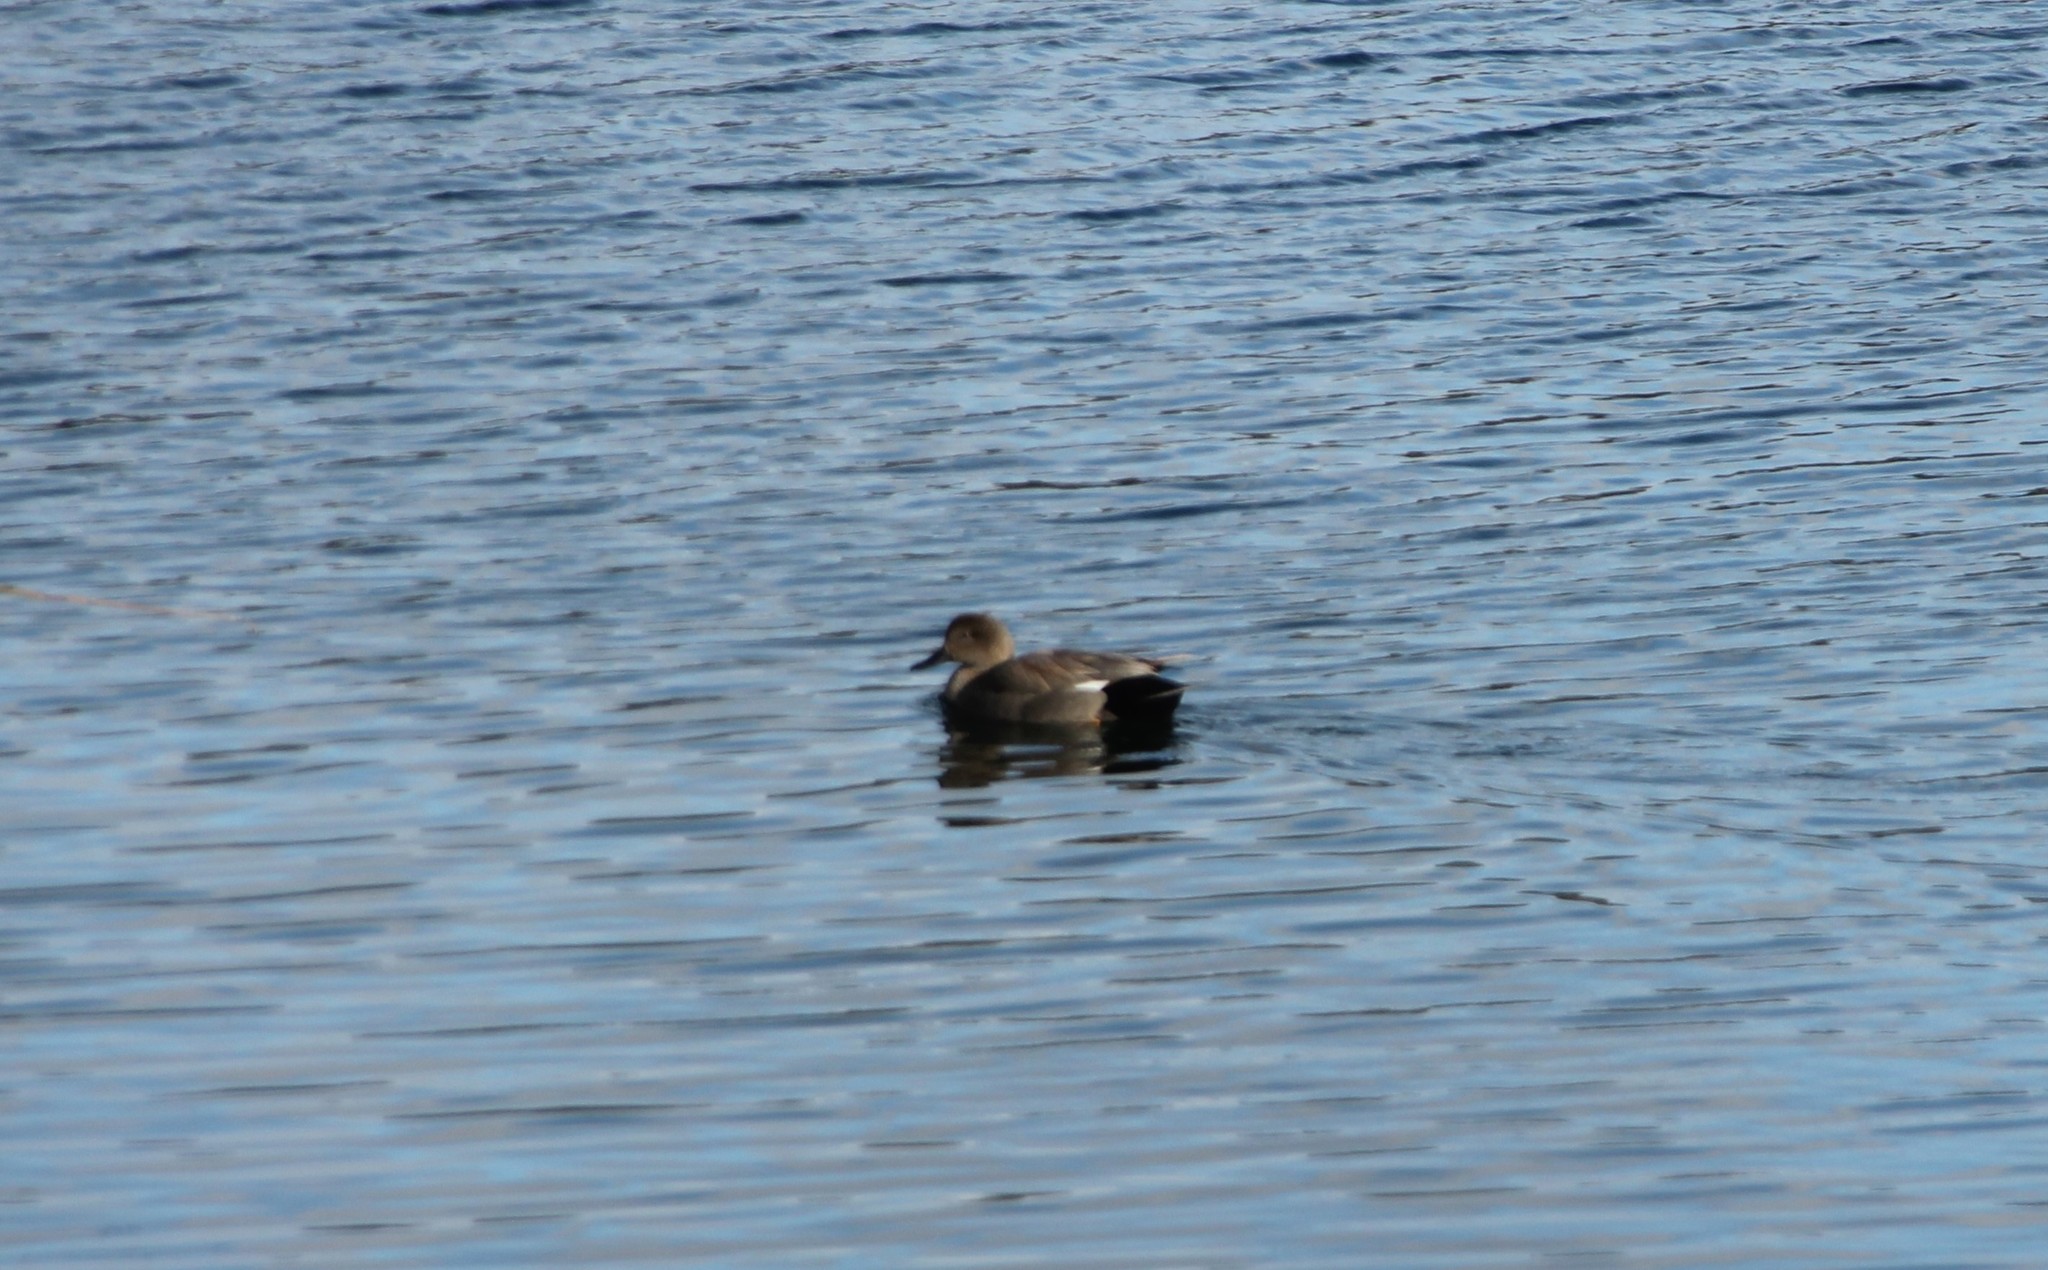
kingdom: Animalia
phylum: Chordata
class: Aves
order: Anseriformes
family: Anatidae
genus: Mareca
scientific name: Mareca strepera
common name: Gadwall
